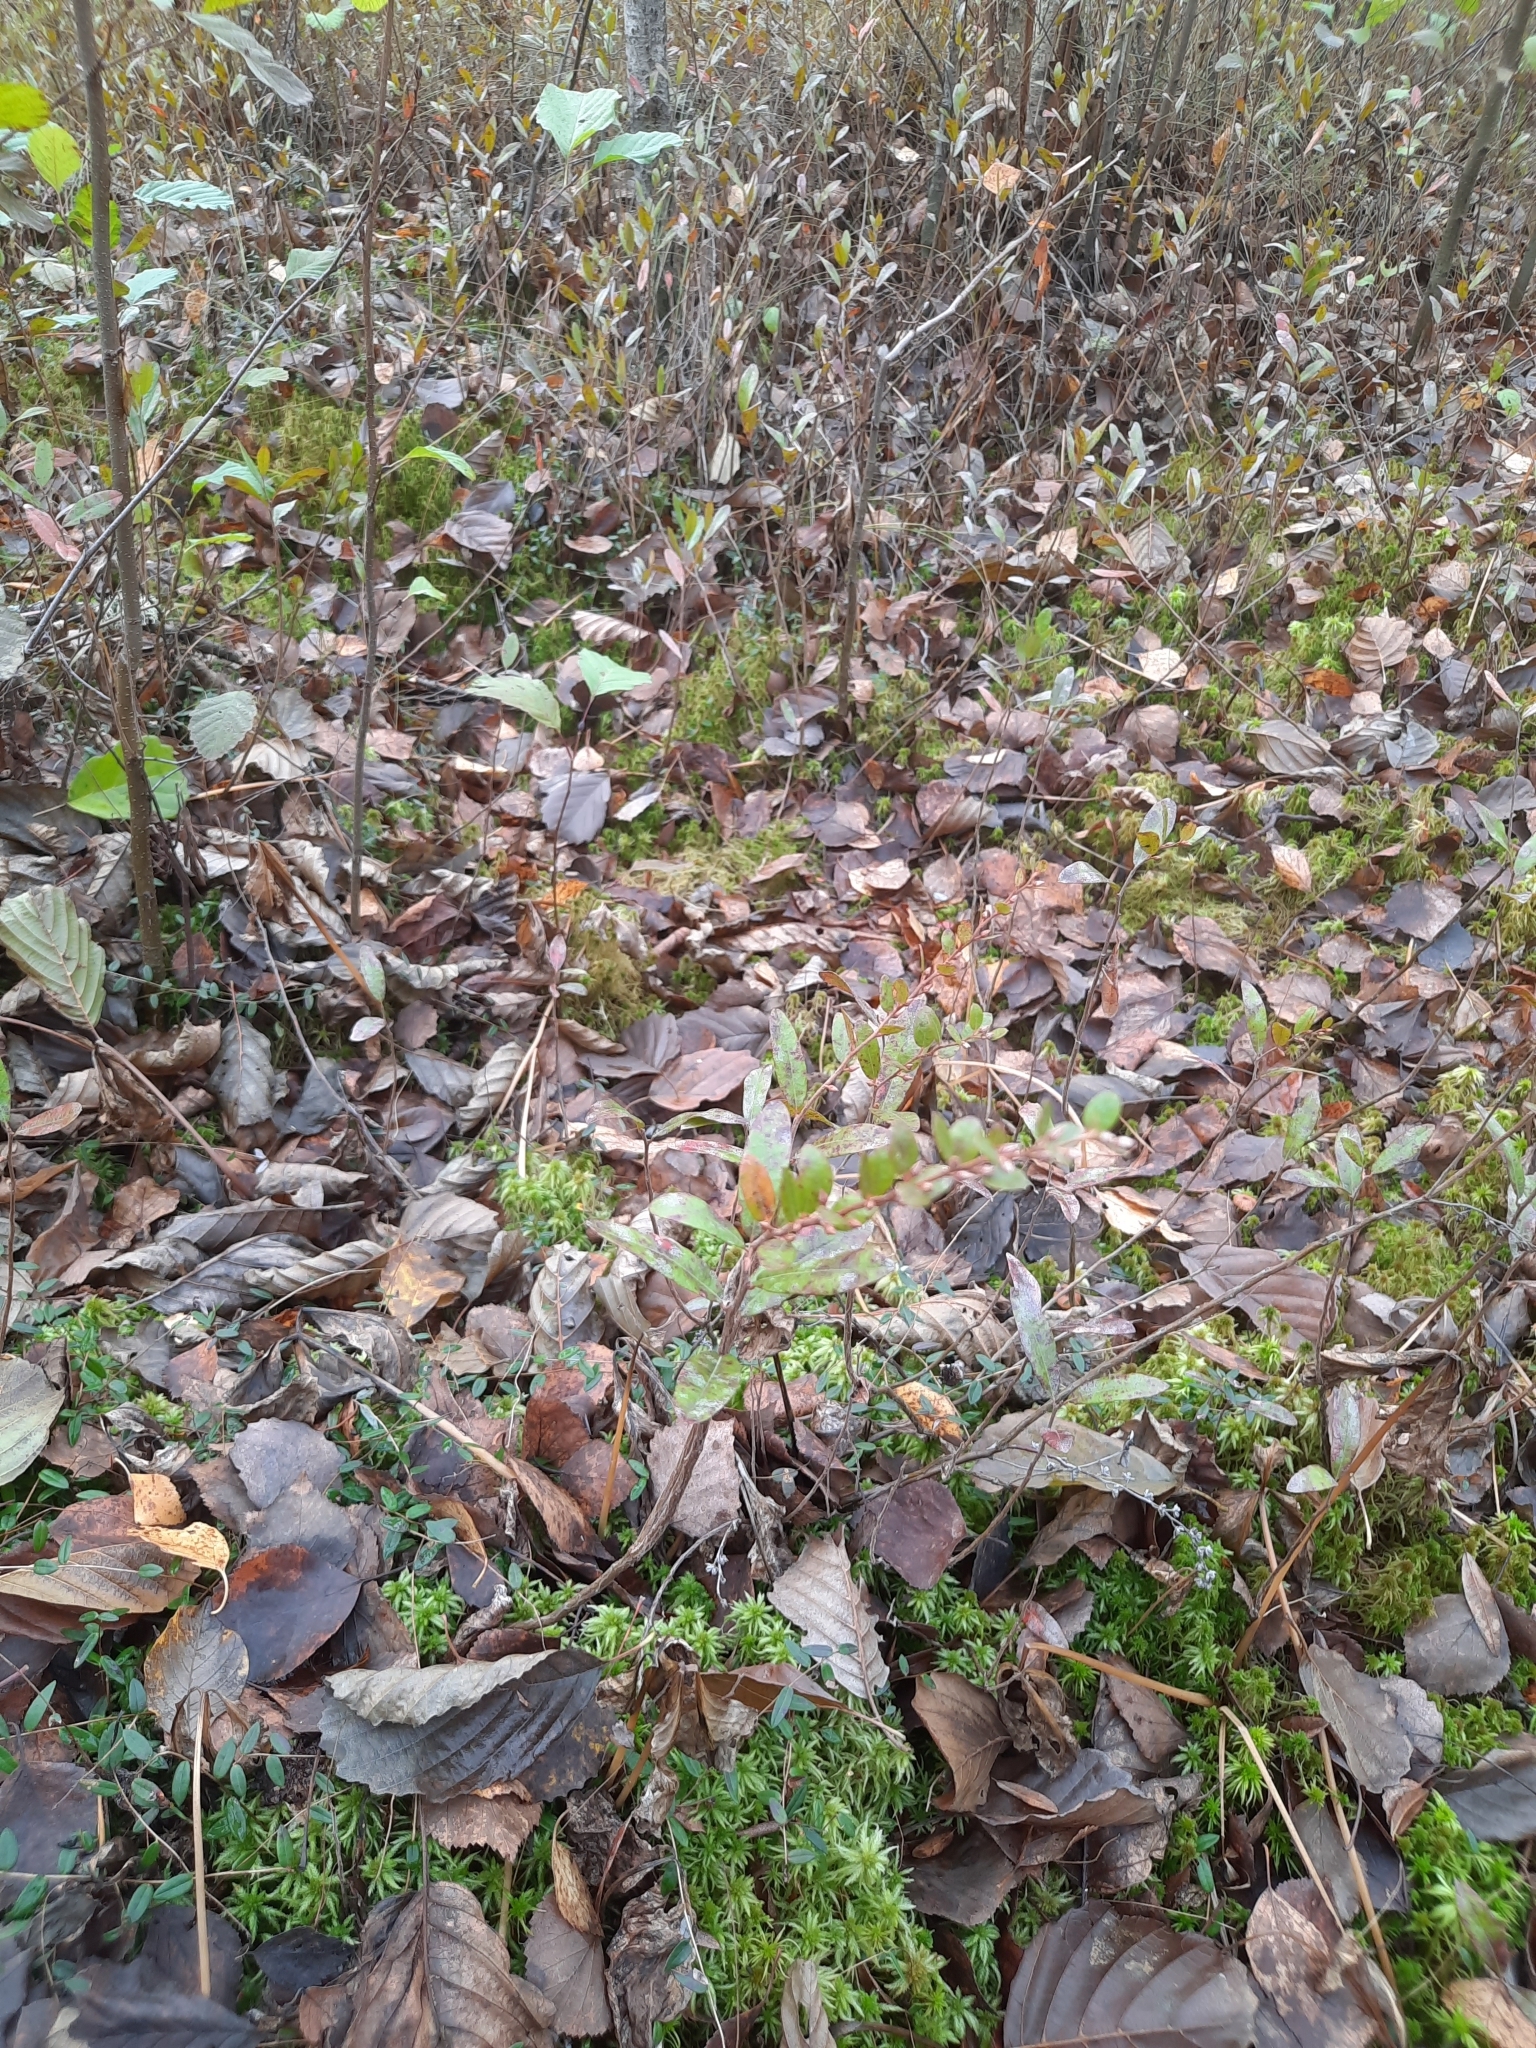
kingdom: Plantae
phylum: Tracheophyta
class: Magnoliopsida
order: Ericales
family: Ericaceae
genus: Chamaedaphne
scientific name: Chamaedaphne calyculata
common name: Leatherleaf
